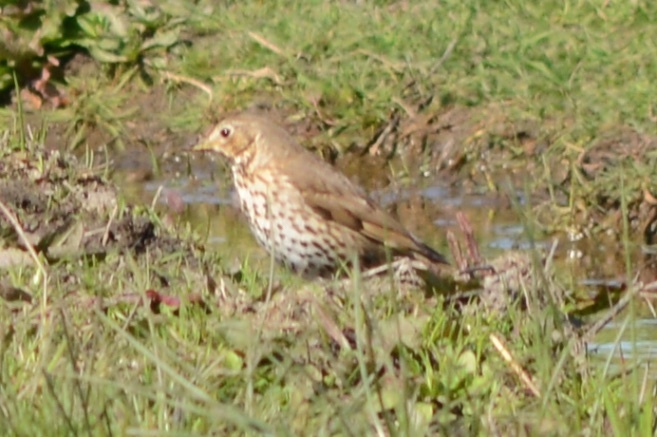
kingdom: Animalia
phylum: Chordata
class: Aves
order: Passeriformes
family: Turdidae
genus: Turdus
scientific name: Turdus philomelos
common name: Song thrush
